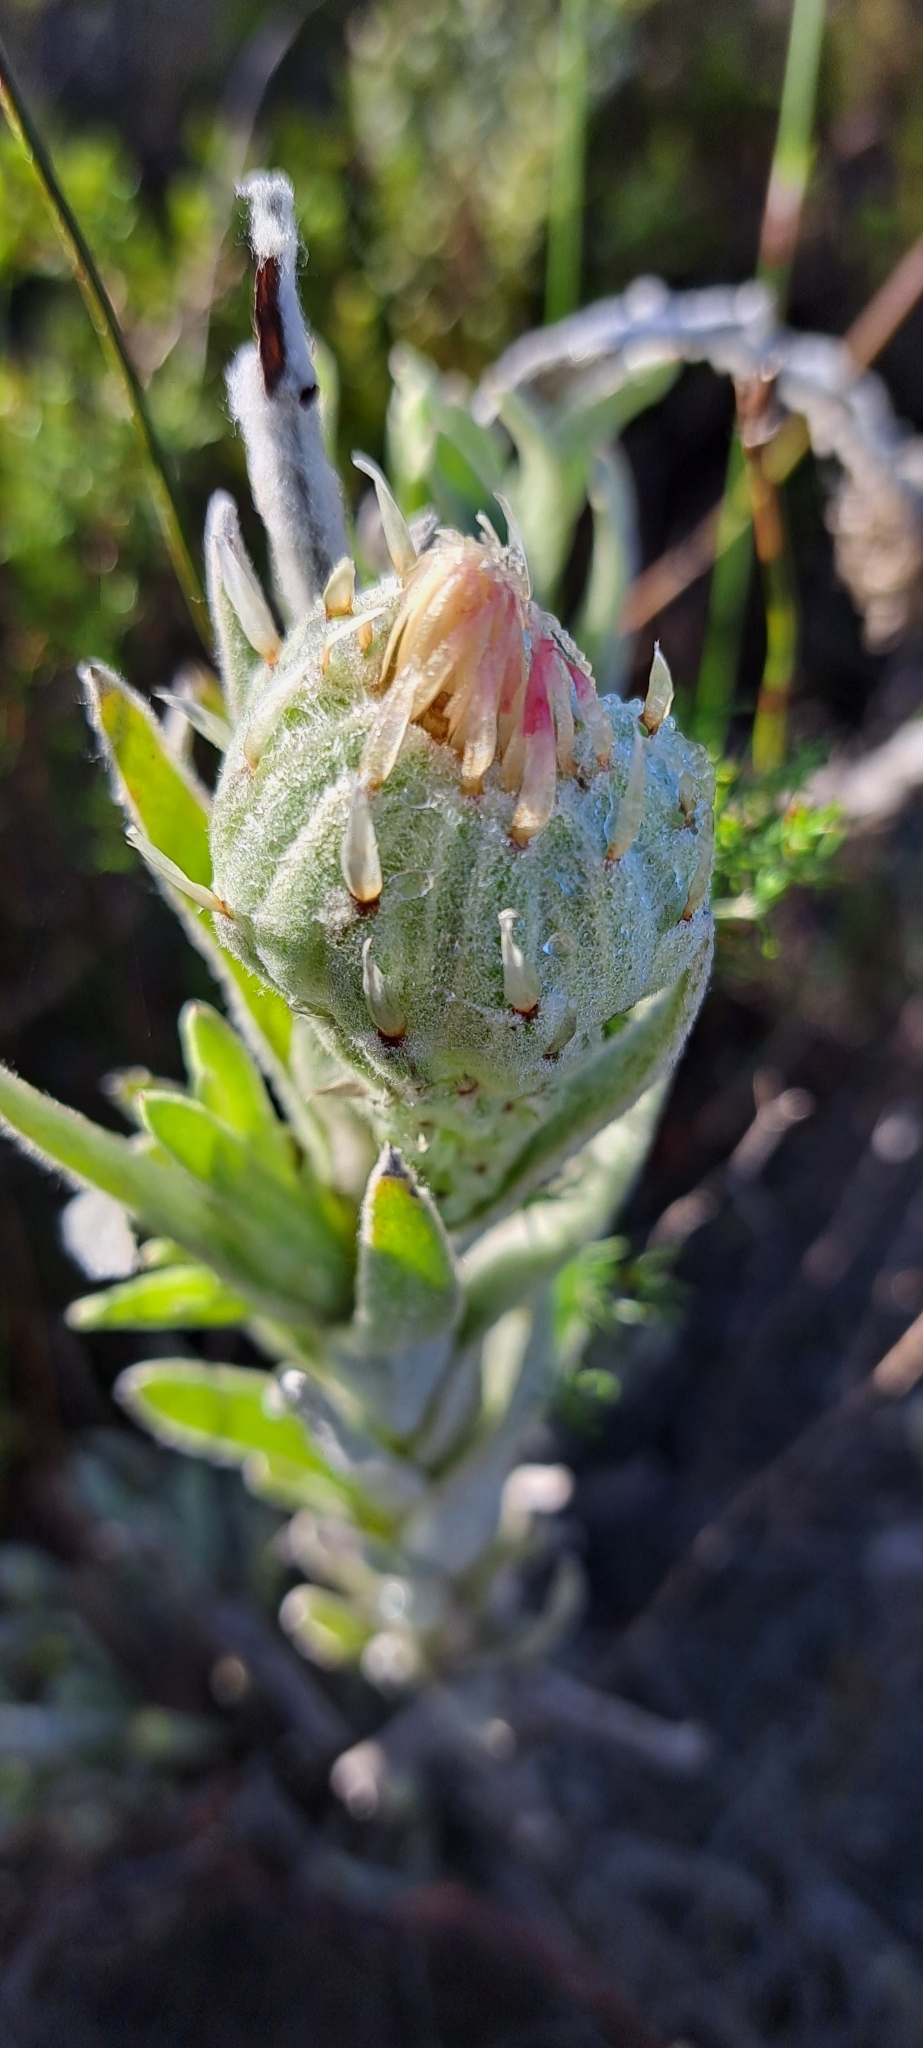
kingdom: Plantae
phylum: Tracheophyta
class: Magnoliopsida
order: Asterales
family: Asteraceae
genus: Syncarpha
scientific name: Syncarpha vestita
